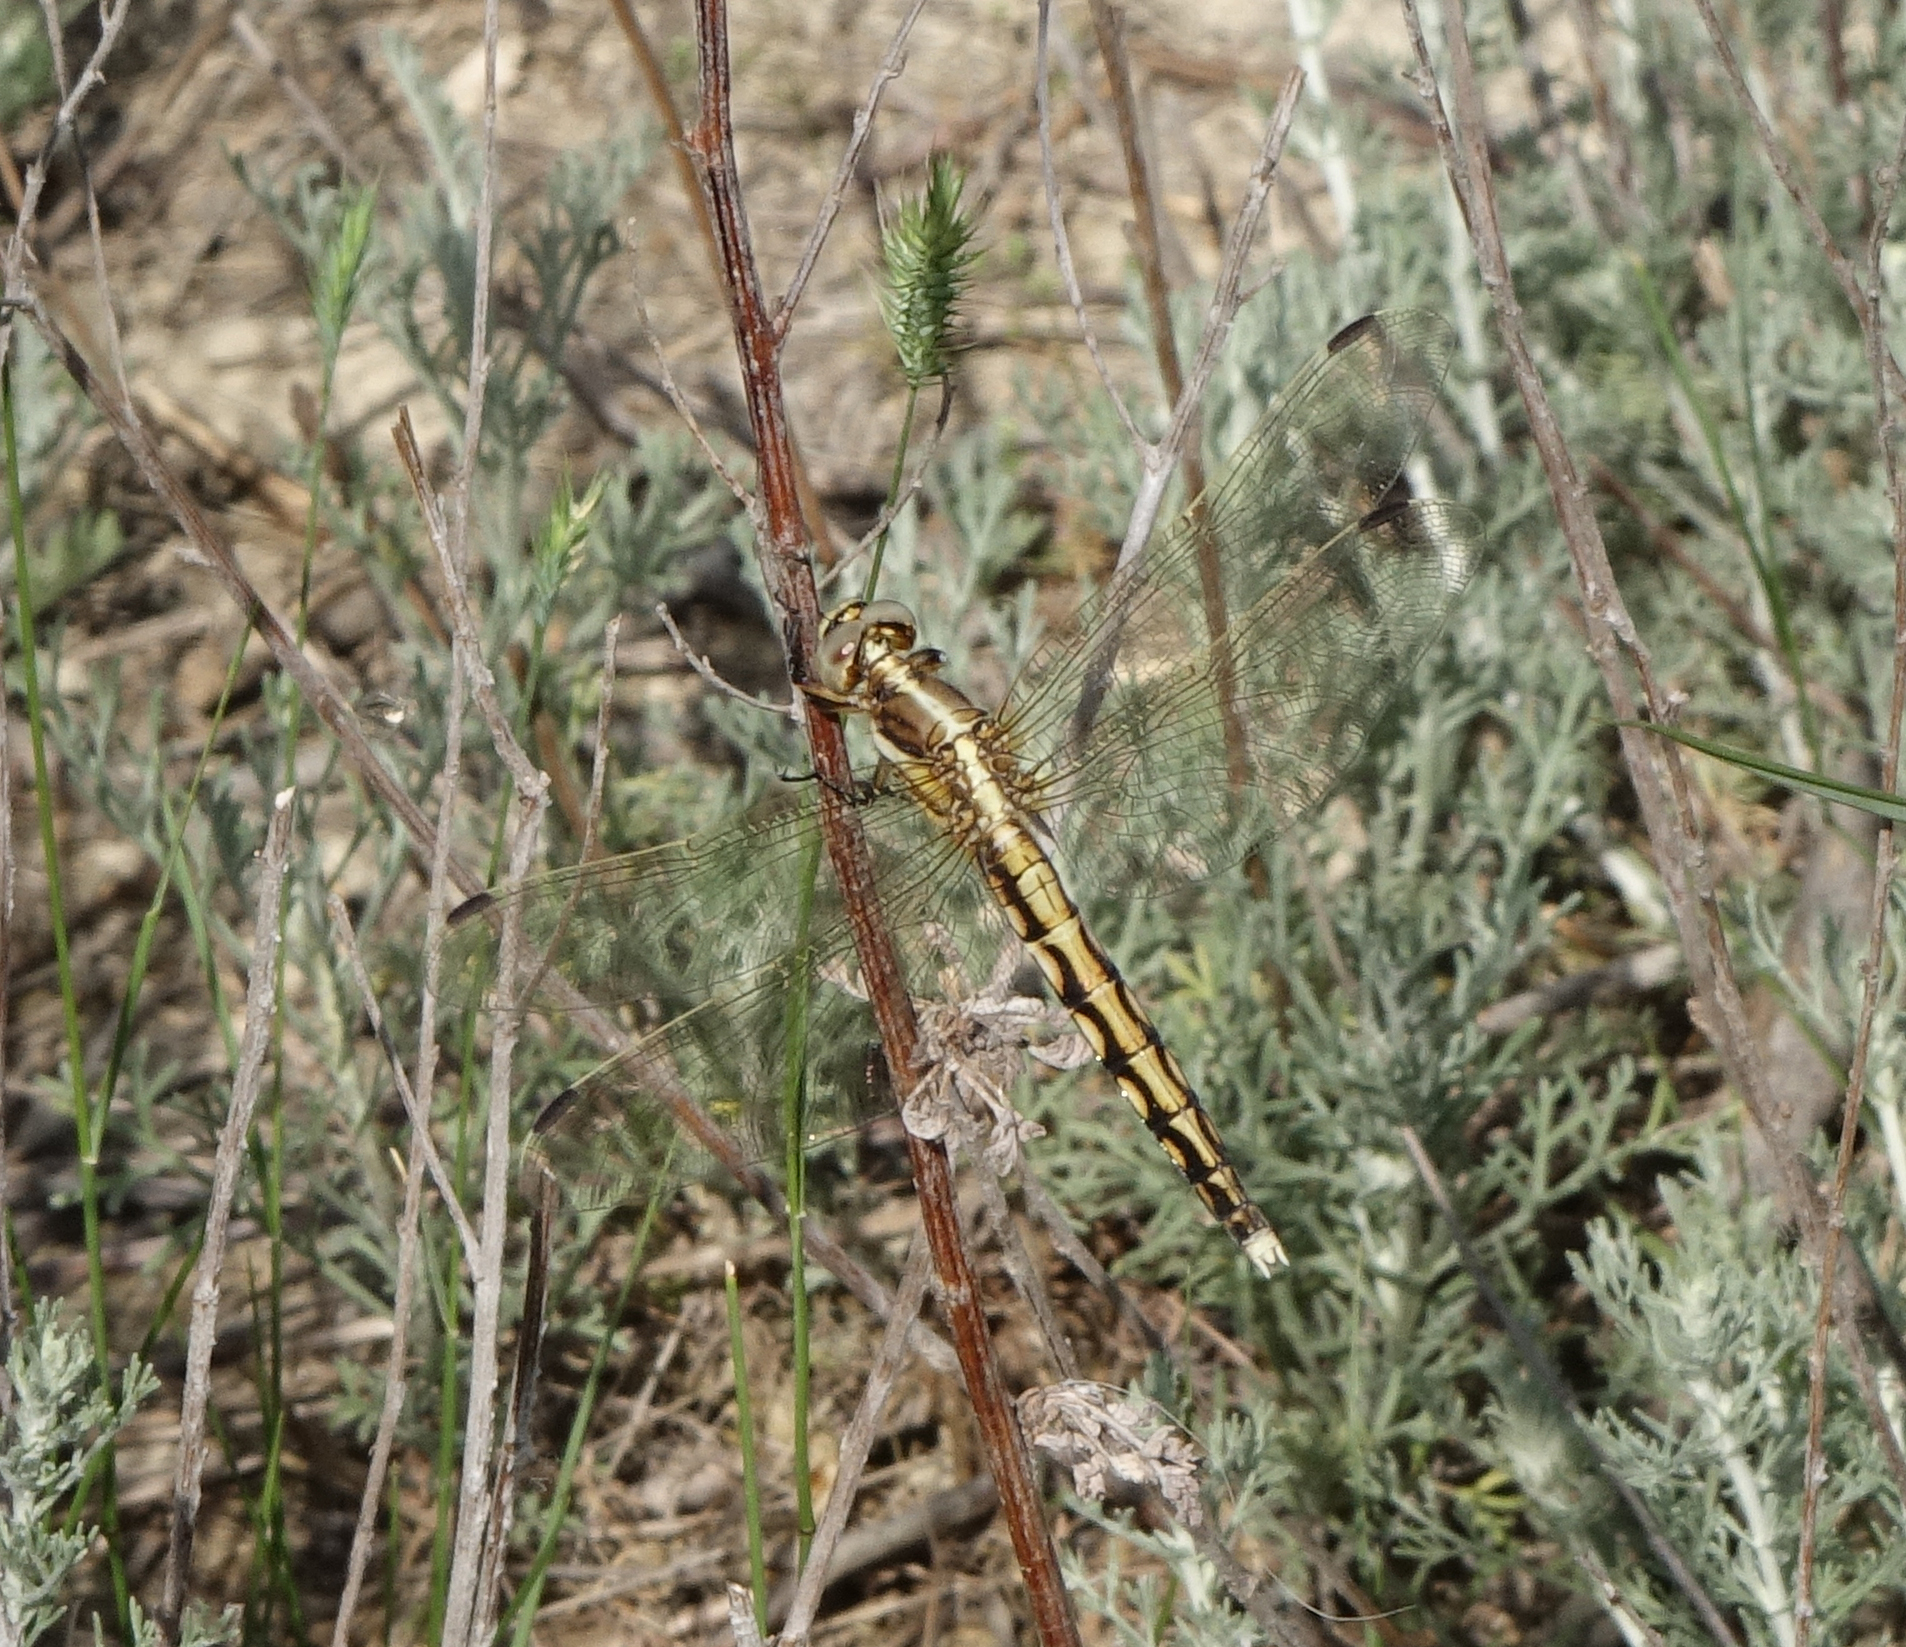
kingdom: Animalia
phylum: Arthropoda
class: Insecta
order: Odonata
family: Libellulidae
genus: Orthetrum
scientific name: Orthetrum albistylum
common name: White-tailed skimmer
